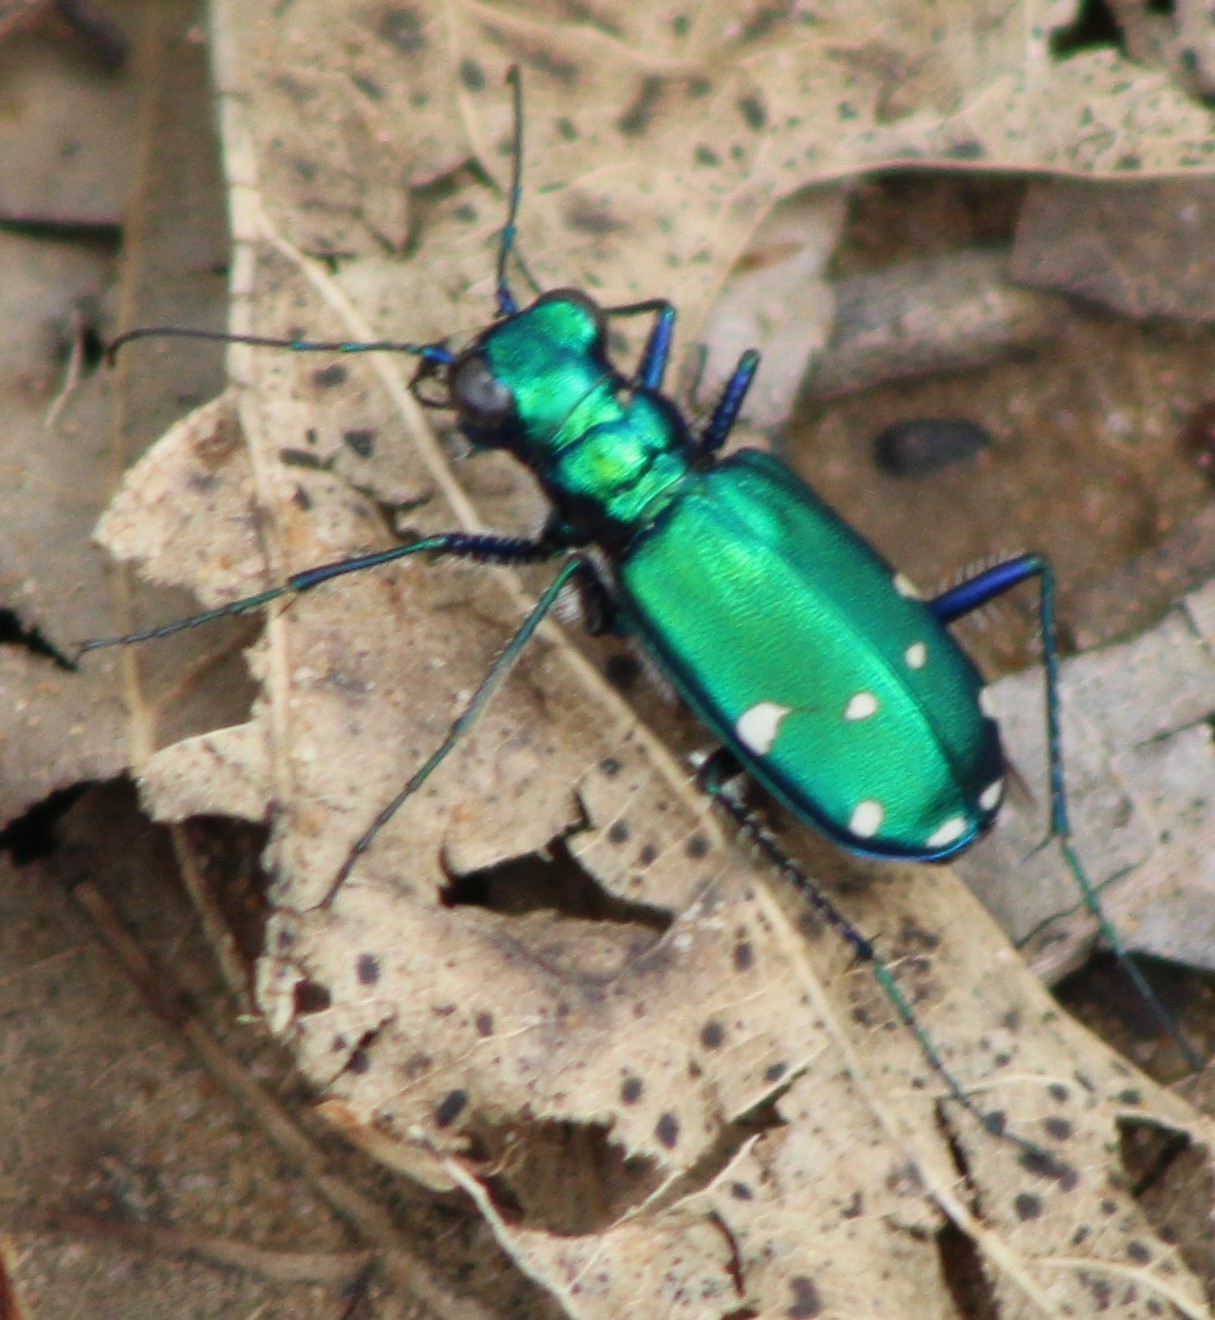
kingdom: Animalia
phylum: Arthropoda
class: Insecta
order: Coleoptera
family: Carabidae
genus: Cicindela
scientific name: Cicindela sexguttata
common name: Six-spotted tiger beetle
